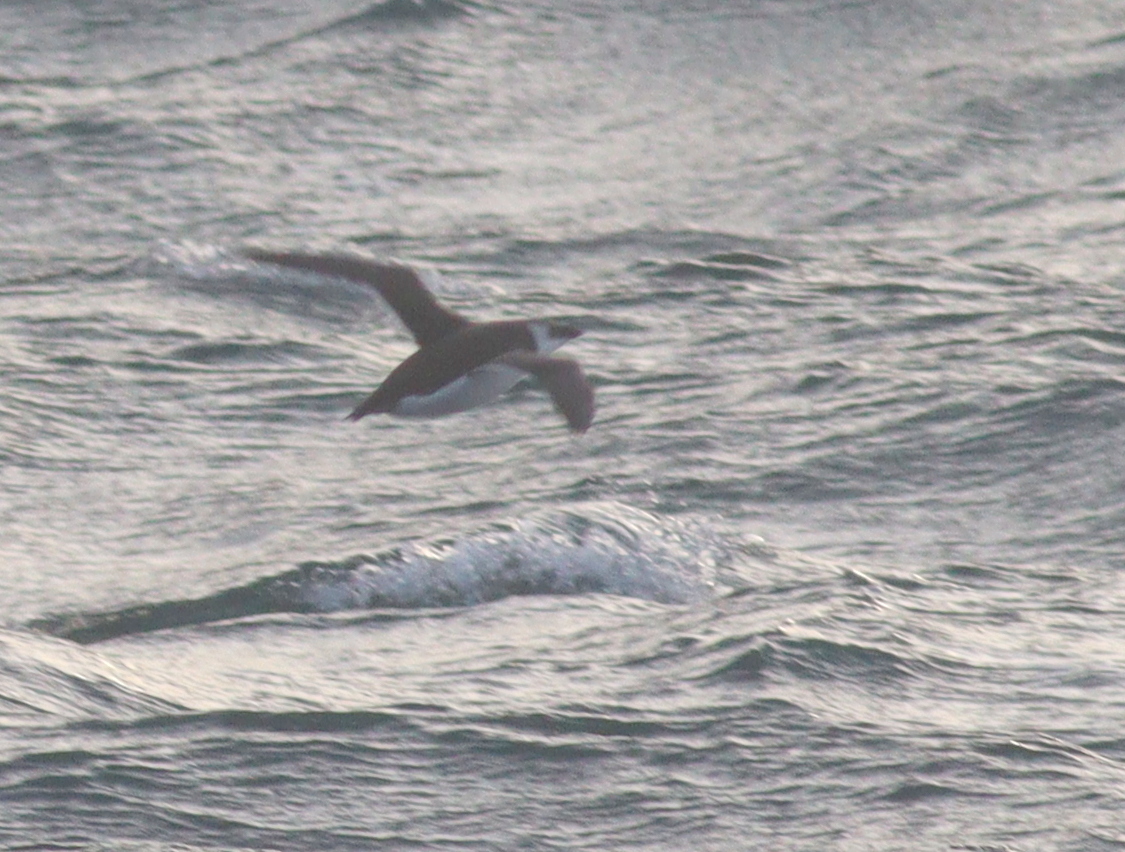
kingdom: Animalia
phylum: Chordata
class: Aves
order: Charadriiformes
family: Alcidae
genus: Alca
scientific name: Alca torda
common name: Razorbill
